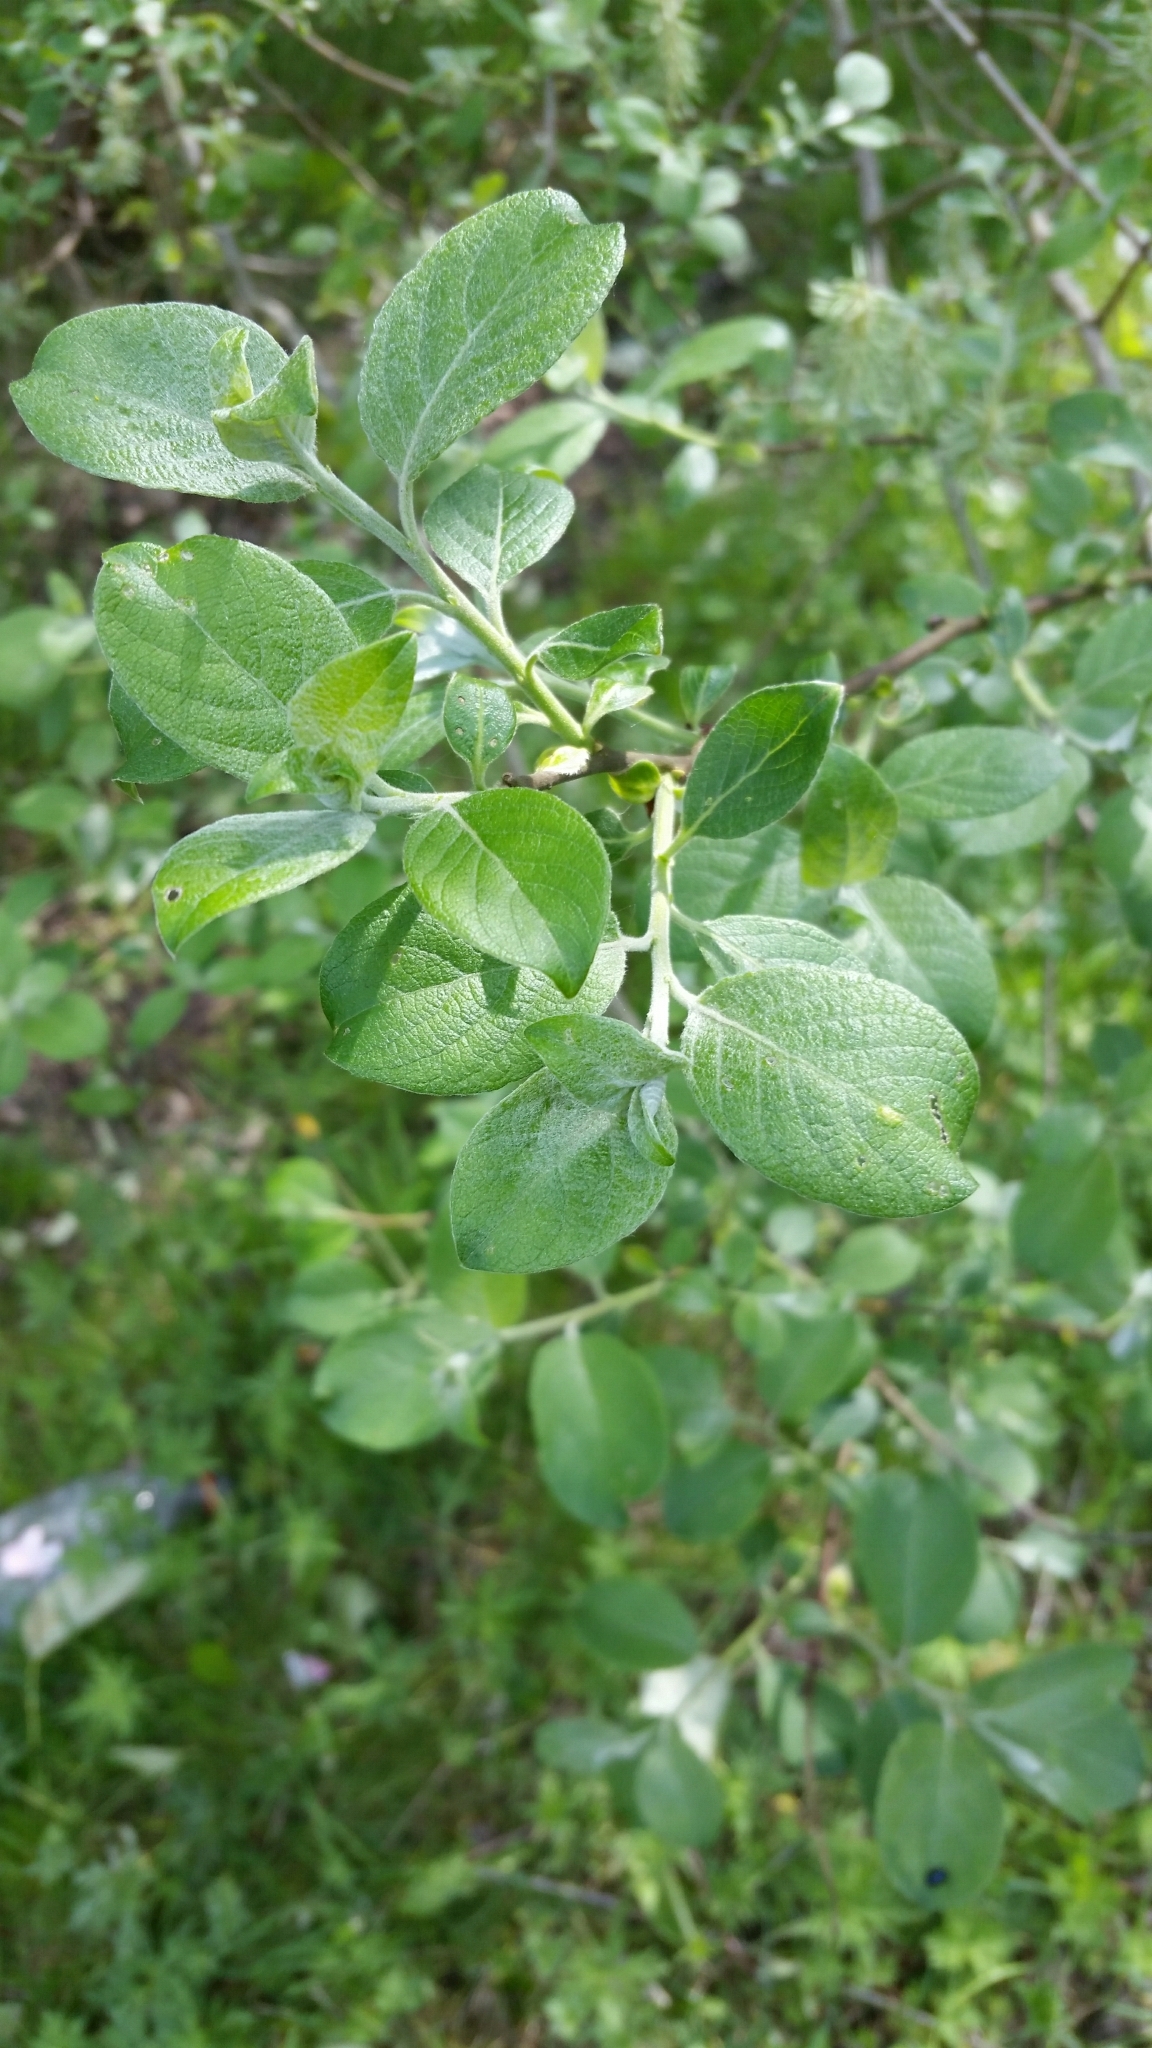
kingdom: Plantae
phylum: Tracheophyta
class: Magnoliopsida
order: Malpighiales
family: Salicaceae
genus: Salix
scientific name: Salix cinerea
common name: Common sallow
